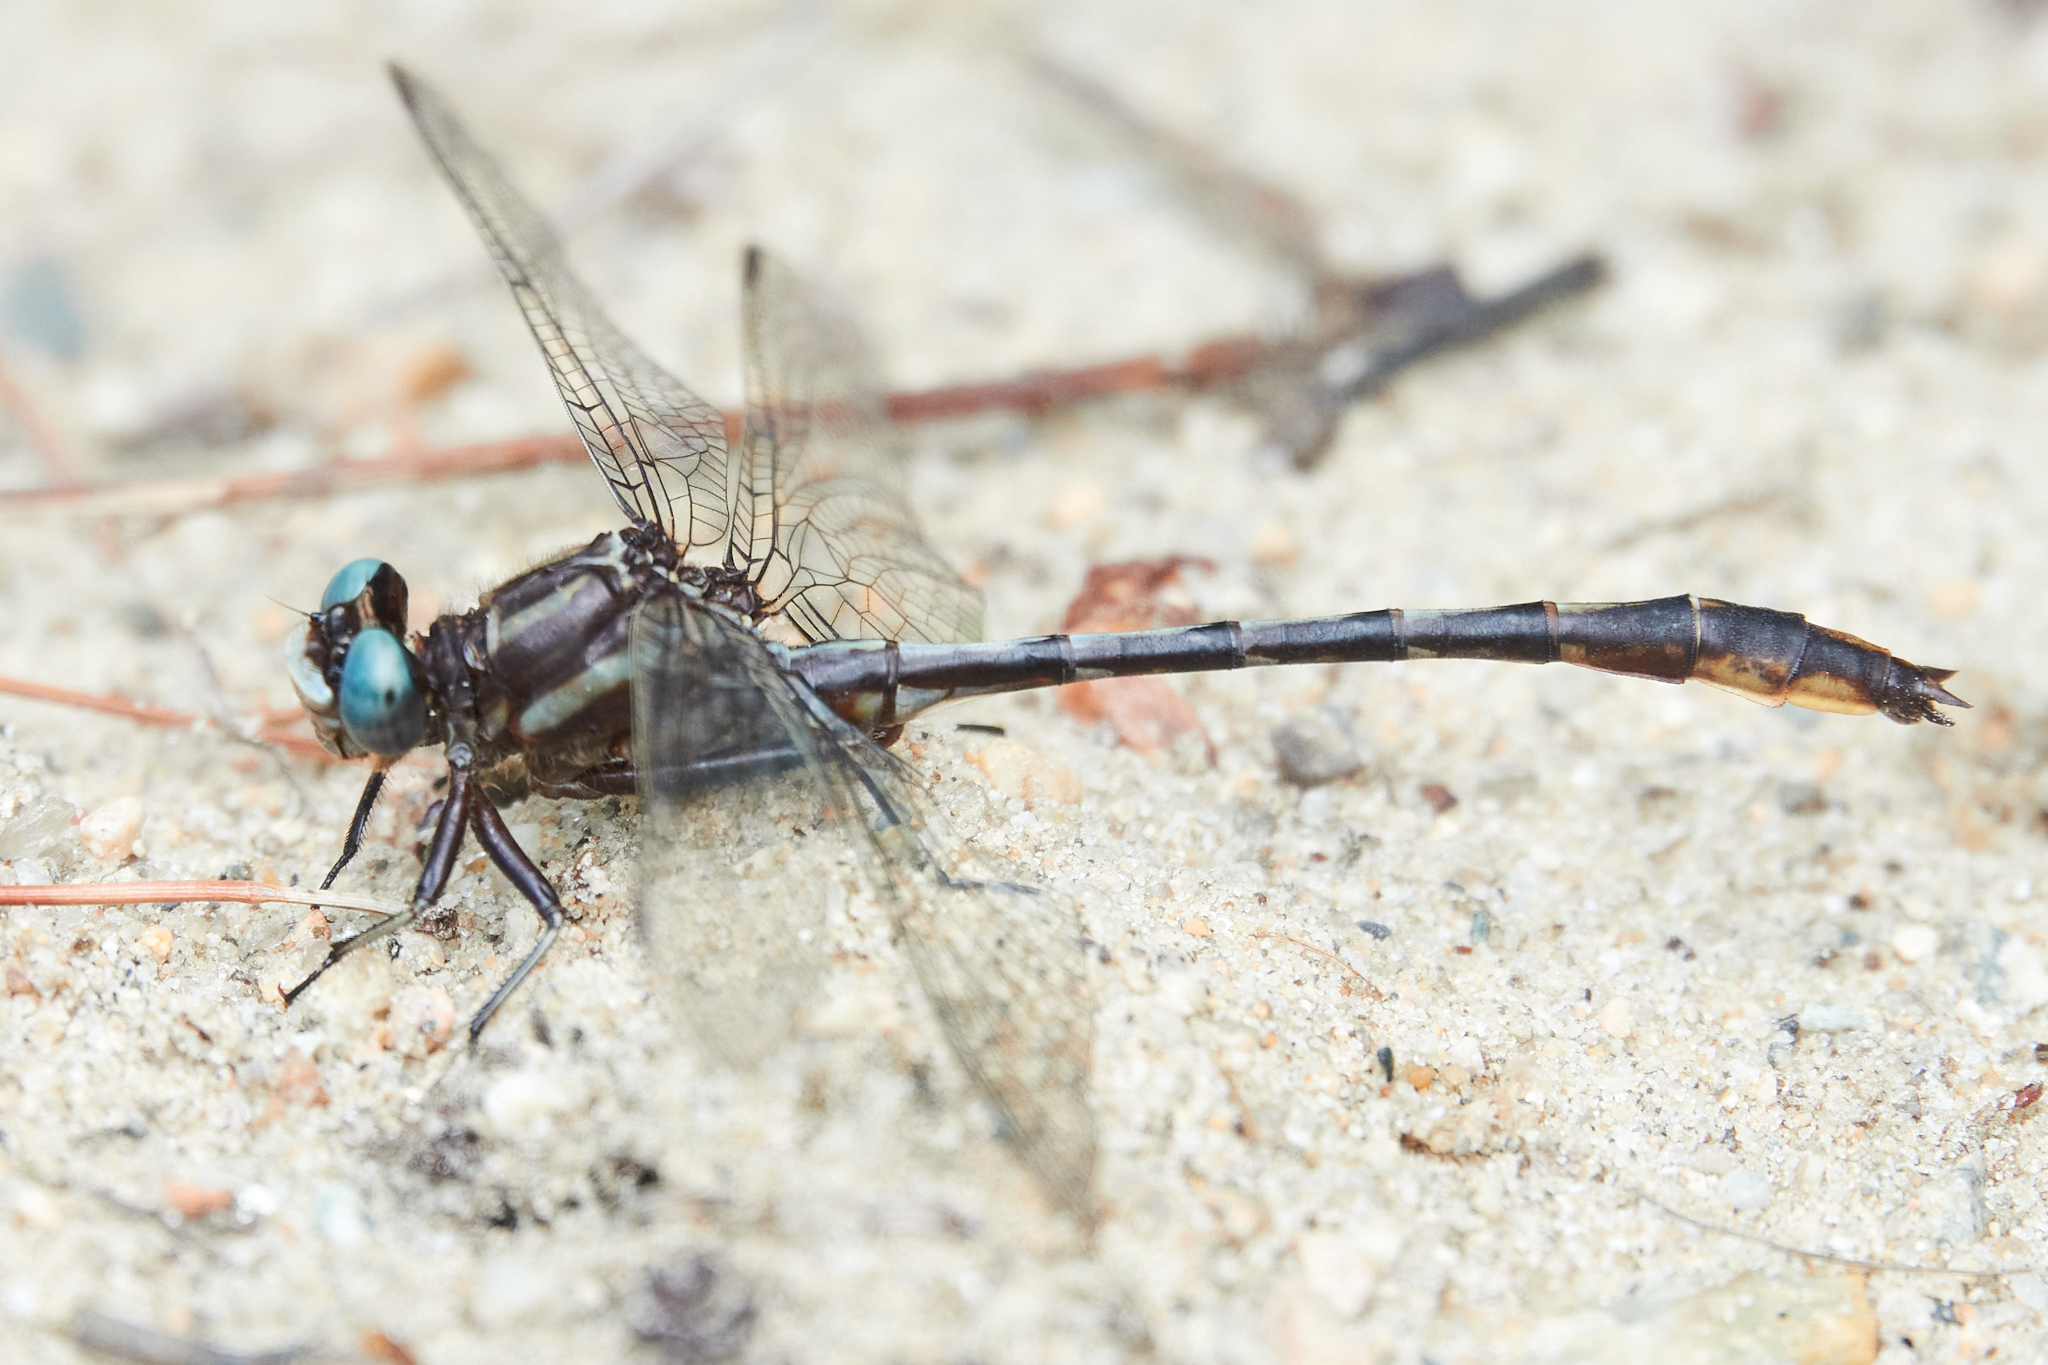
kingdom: Animalia
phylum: Arthropoda
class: Insecta
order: Odonata
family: Gomphidae
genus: Phanogomphus
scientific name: Phanogomphus exilis
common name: Lancet clubtail
